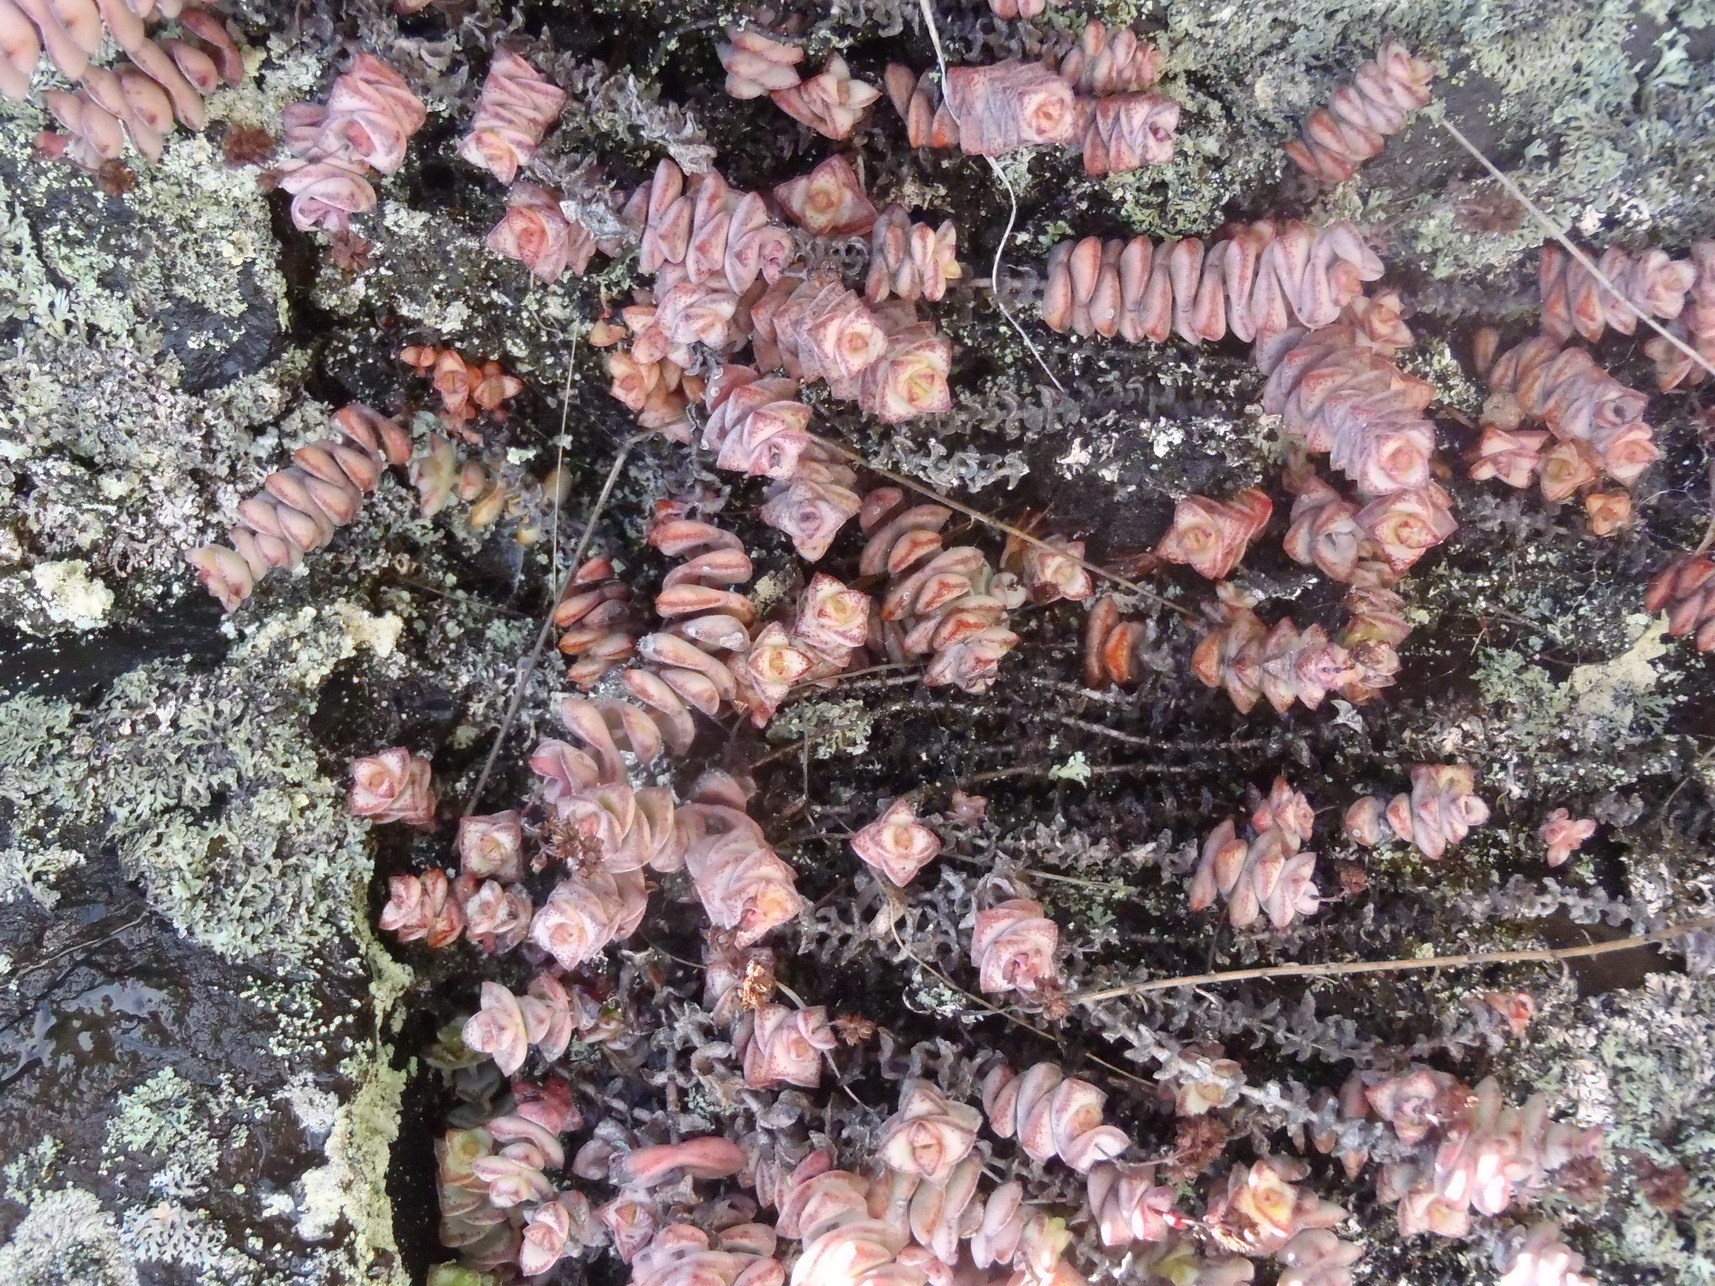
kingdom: Plantae
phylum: Tracheophyta
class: Magnoliopsida
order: Saxifragales
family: Crassulaceae
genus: Crassula
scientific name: Crassula perforata
